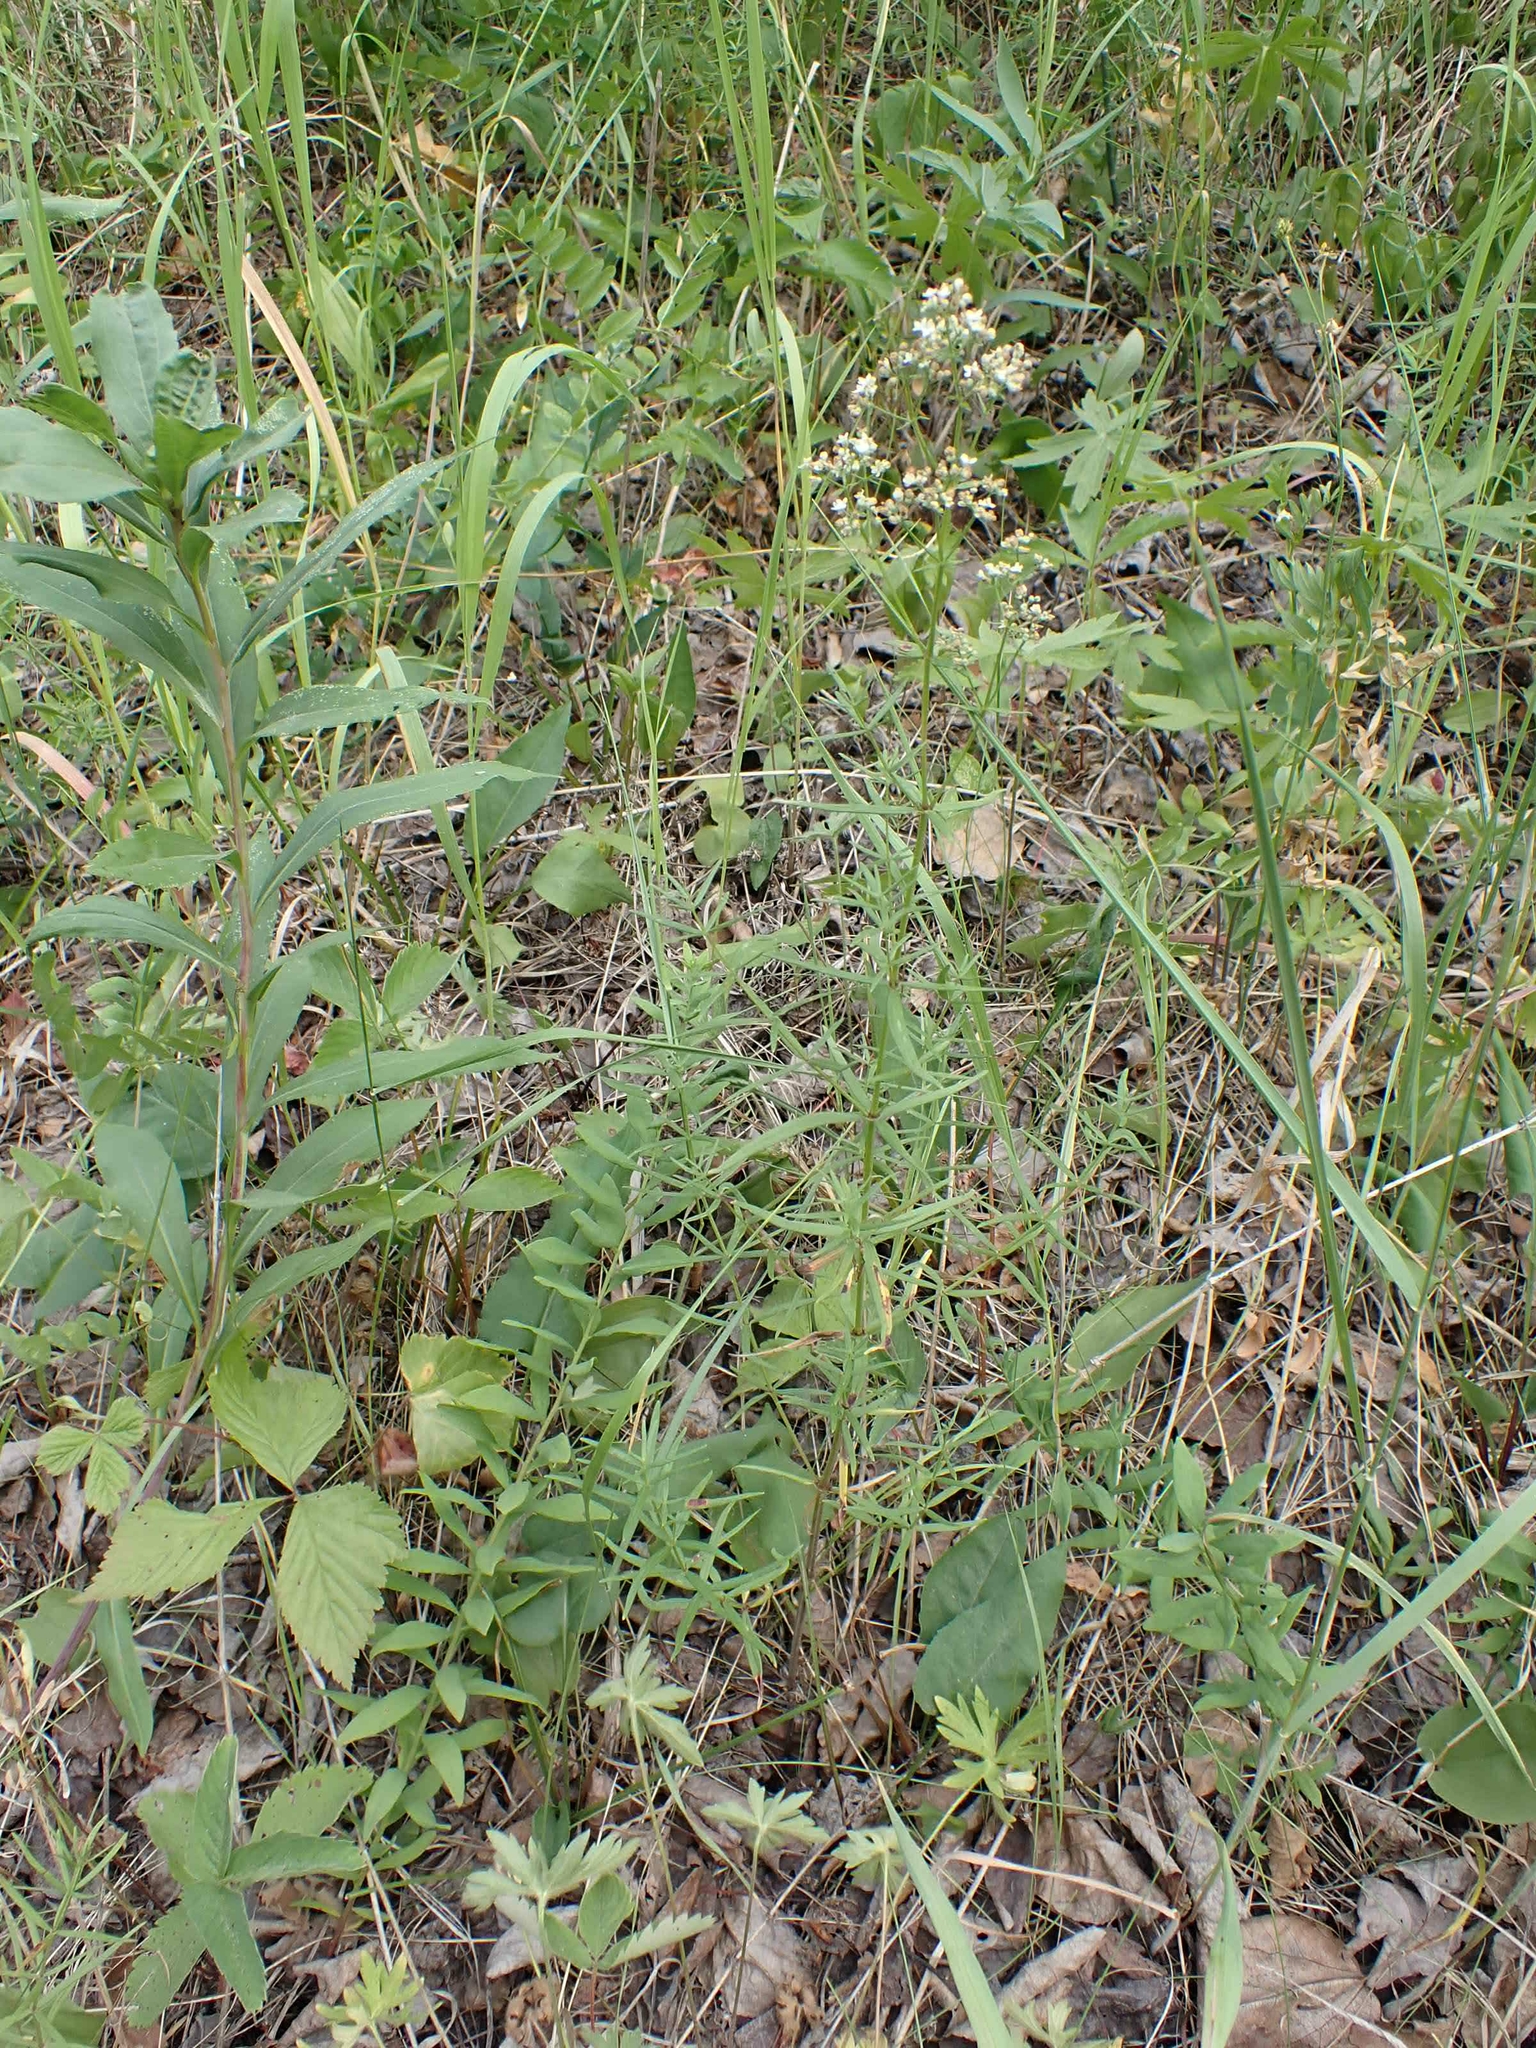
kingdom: Plantae
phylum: Tracheophyta
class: Magnoliopsida
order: Gentianales
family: Rubiaceae
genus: Galium
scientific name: Galium boreale
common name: Northern bedstraw
